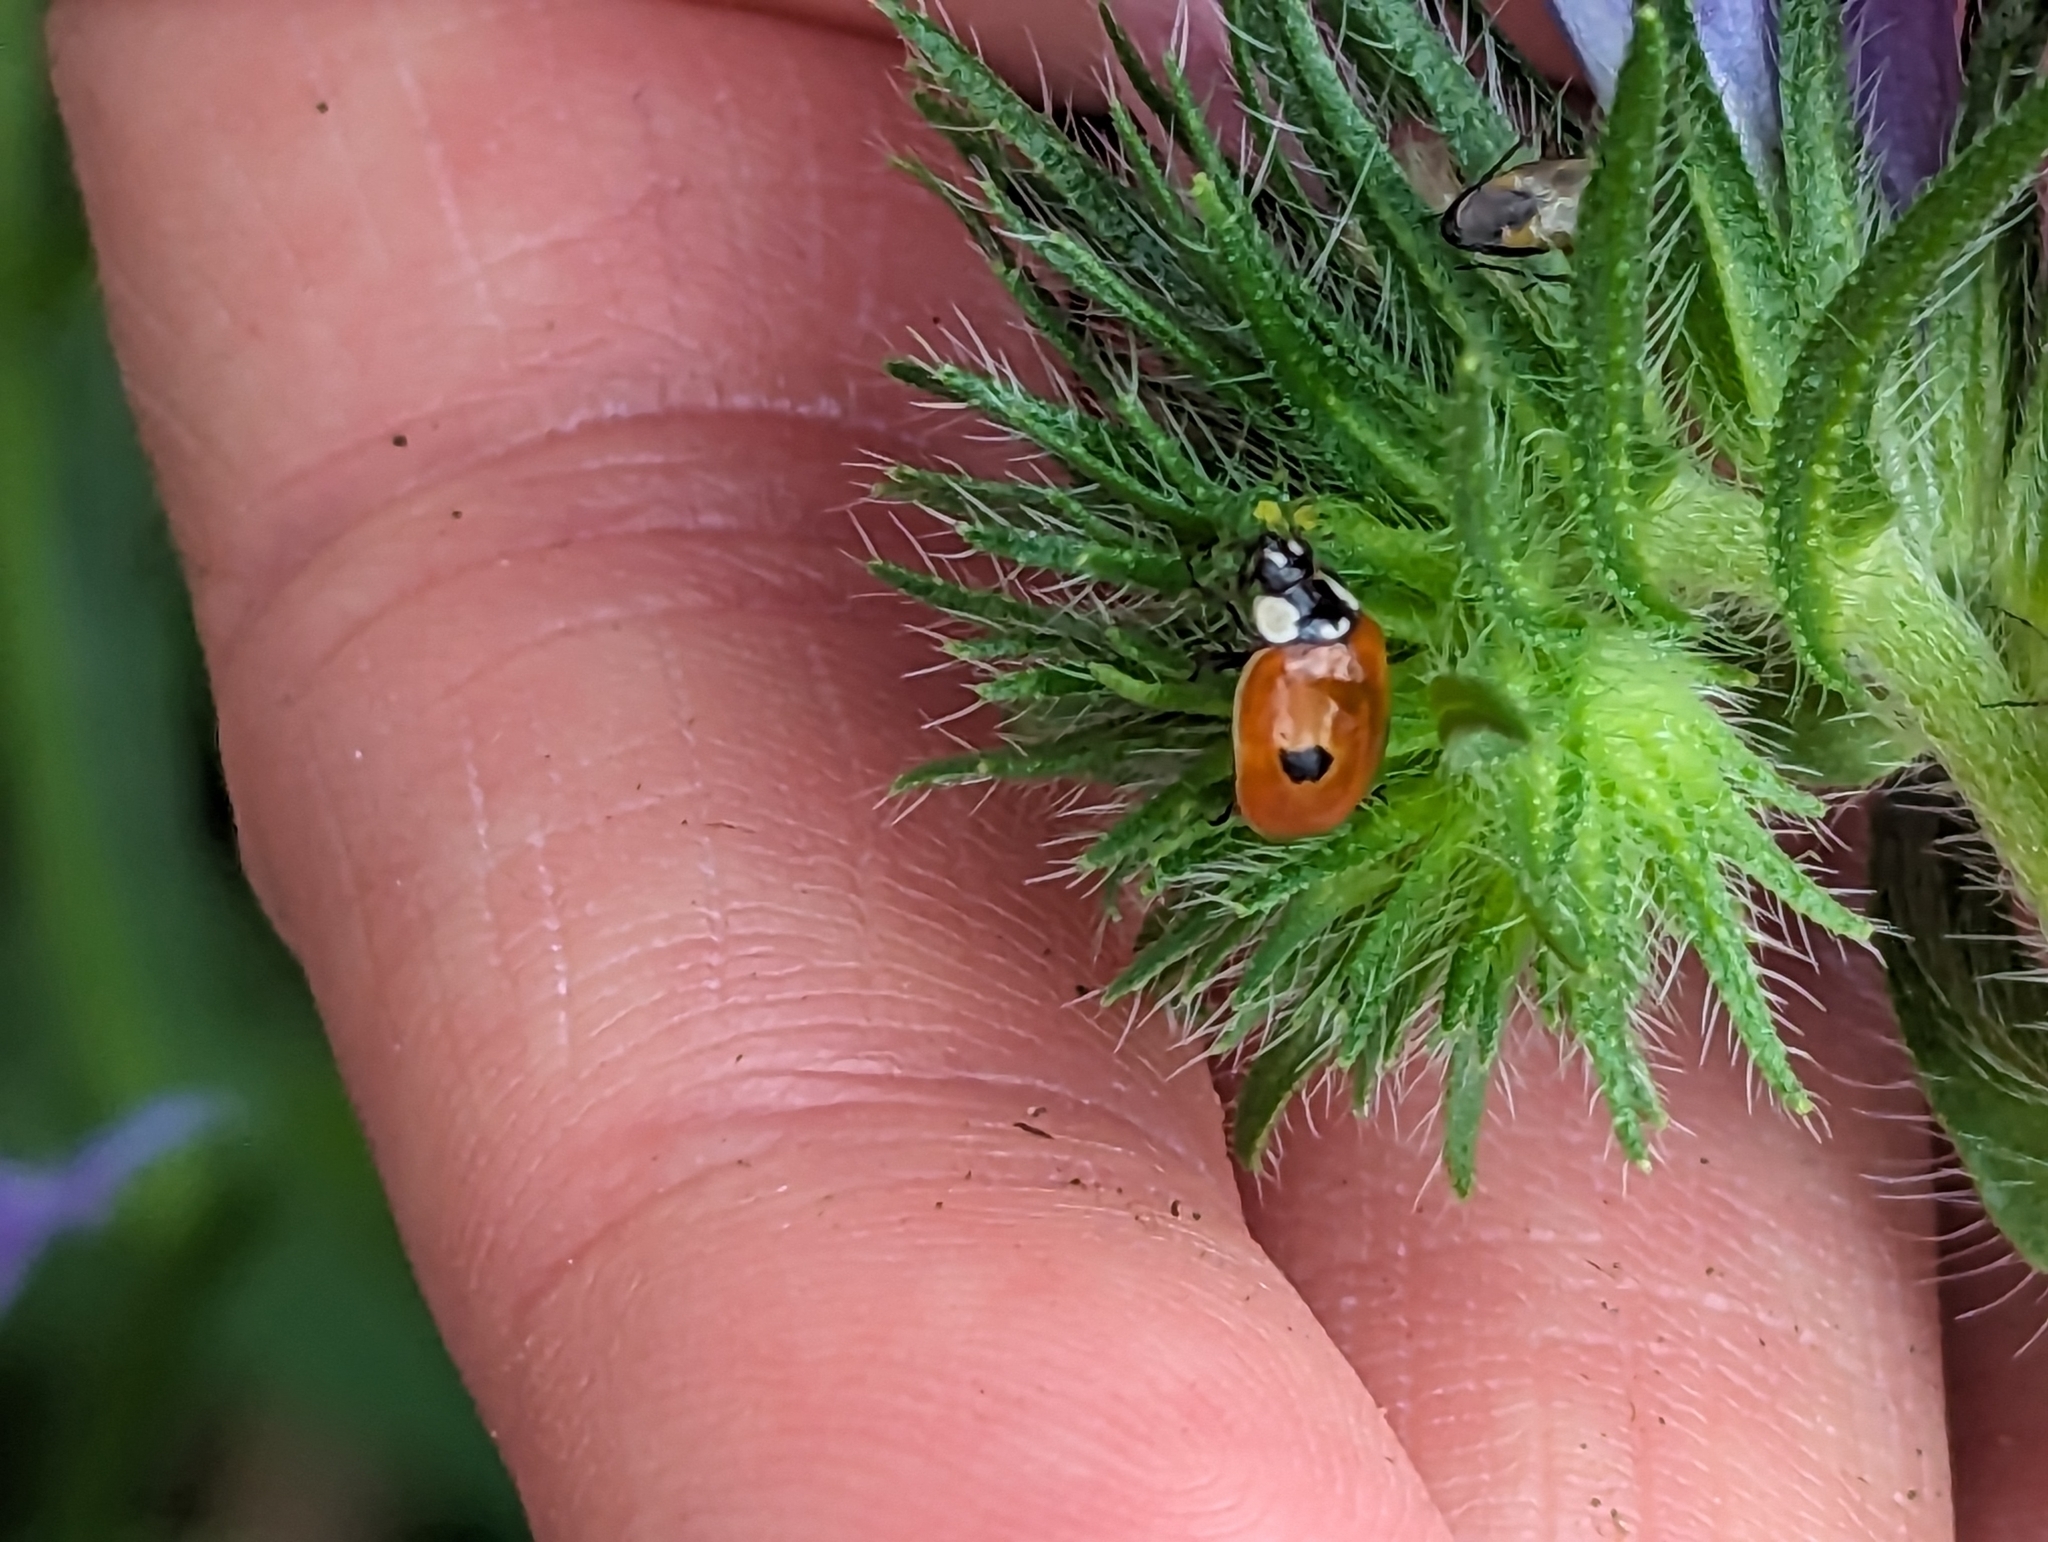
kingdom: Animalia
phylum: Arthropoda
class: Insecta
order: Coleoptera
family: Coccinellidae
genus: Adalia
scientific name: Adalia bipunctata
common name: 2-spot ladybird
